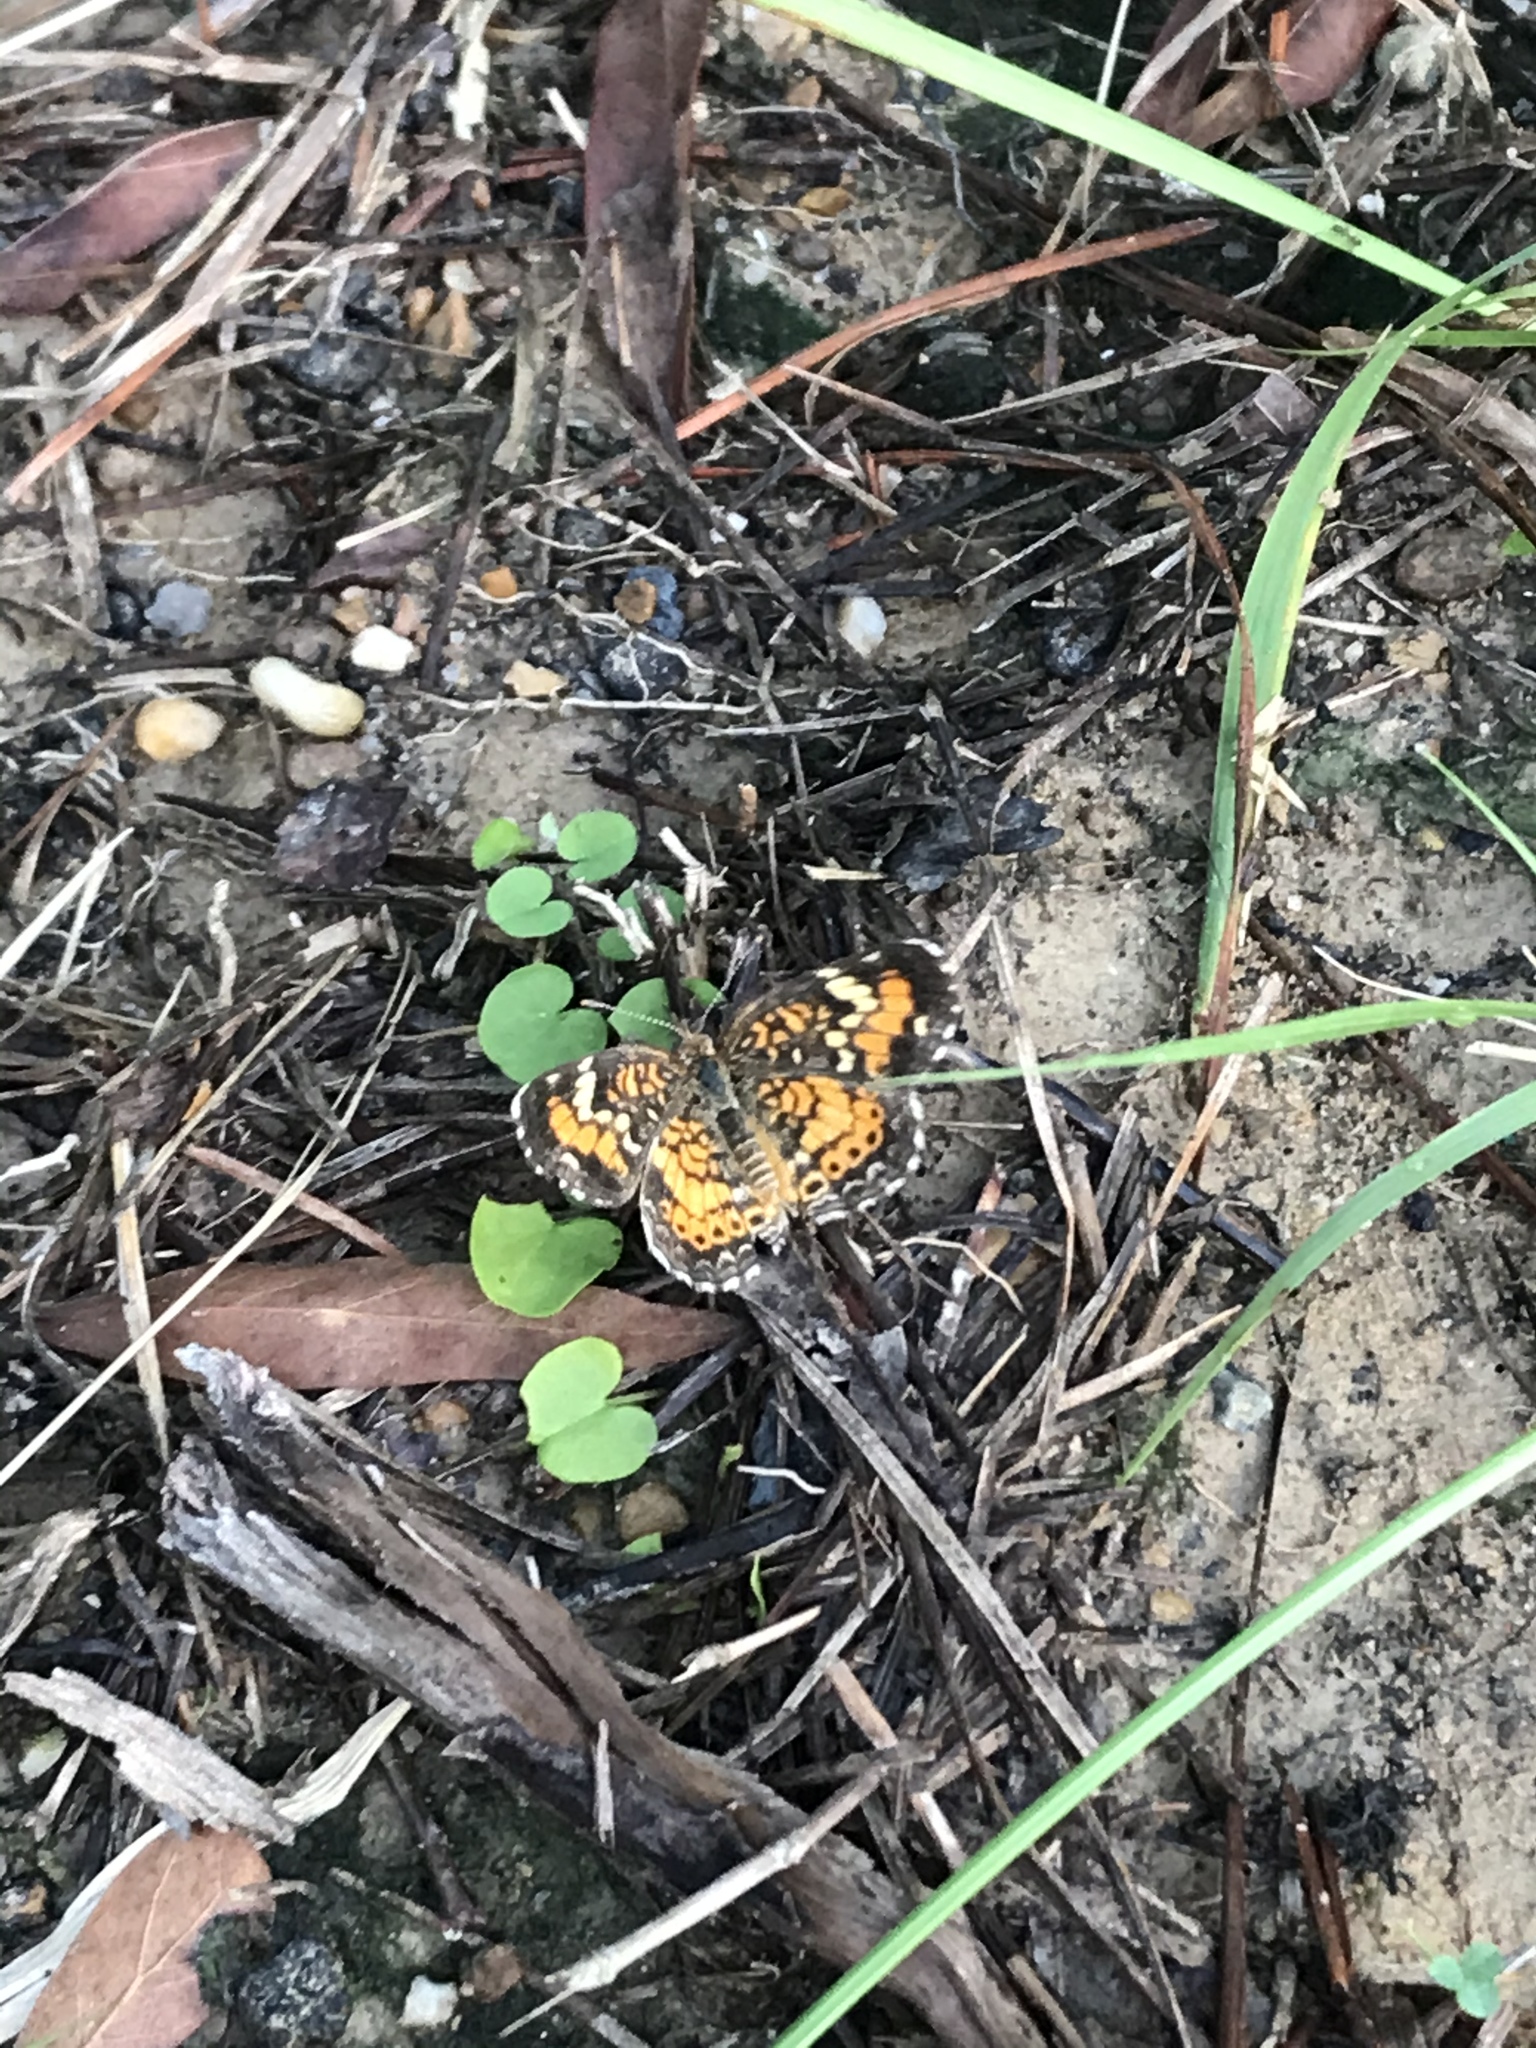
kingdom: Animalia
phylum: Arthropoda
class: Insecta
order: Lepidoptera
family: Nymphalidae
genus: Phyciodes
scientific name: Phyciodes phaon
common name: Phaon crescent
